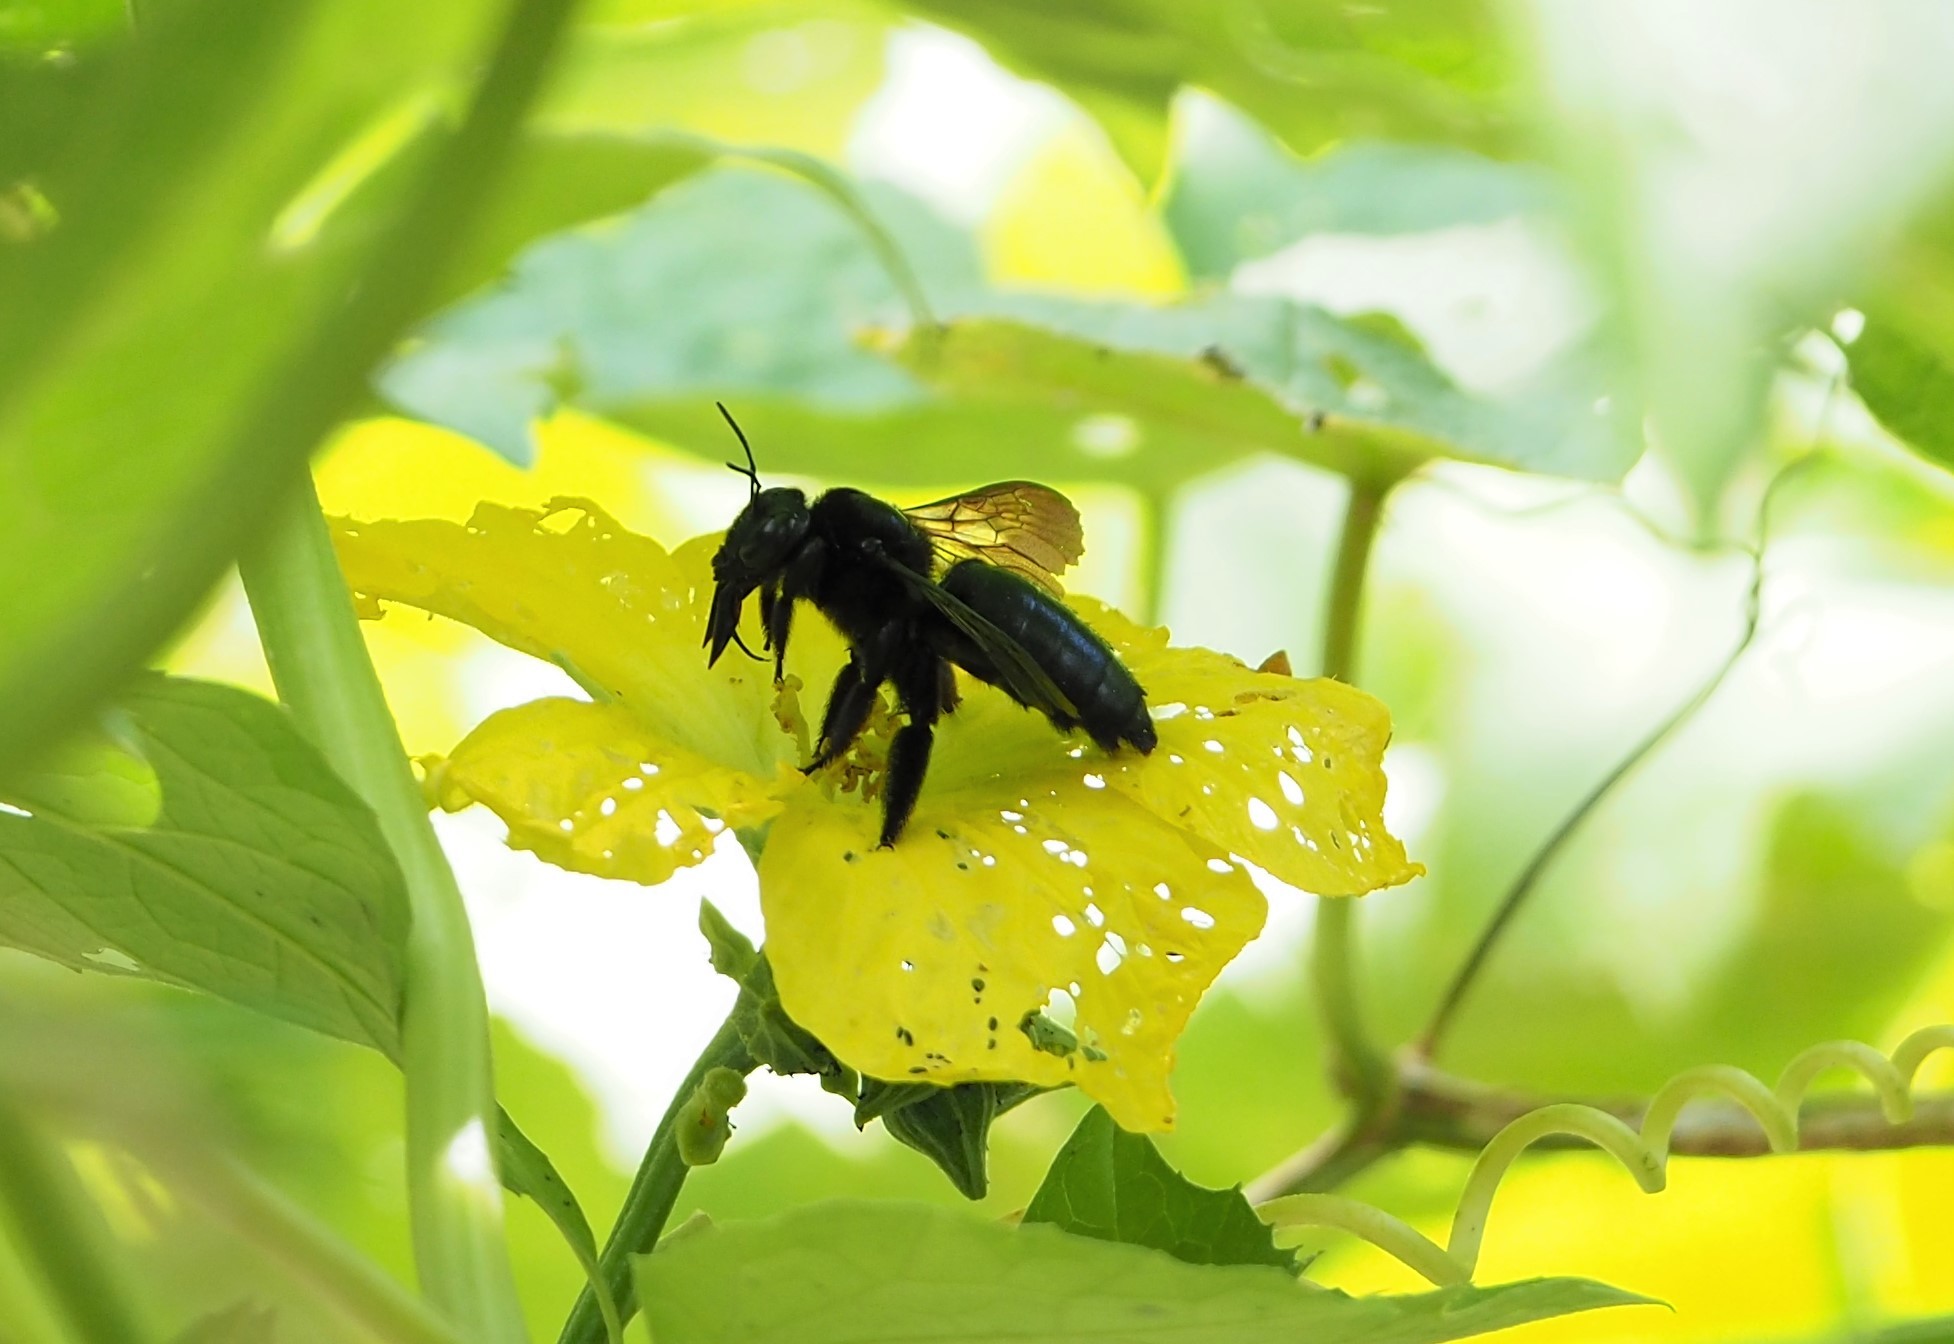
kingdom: Animalia
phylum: Arthropoda
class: Insecta
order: Hymenoptera
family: Apidae
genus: Xylocopa
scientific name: Xylocopa tranquebarorum
